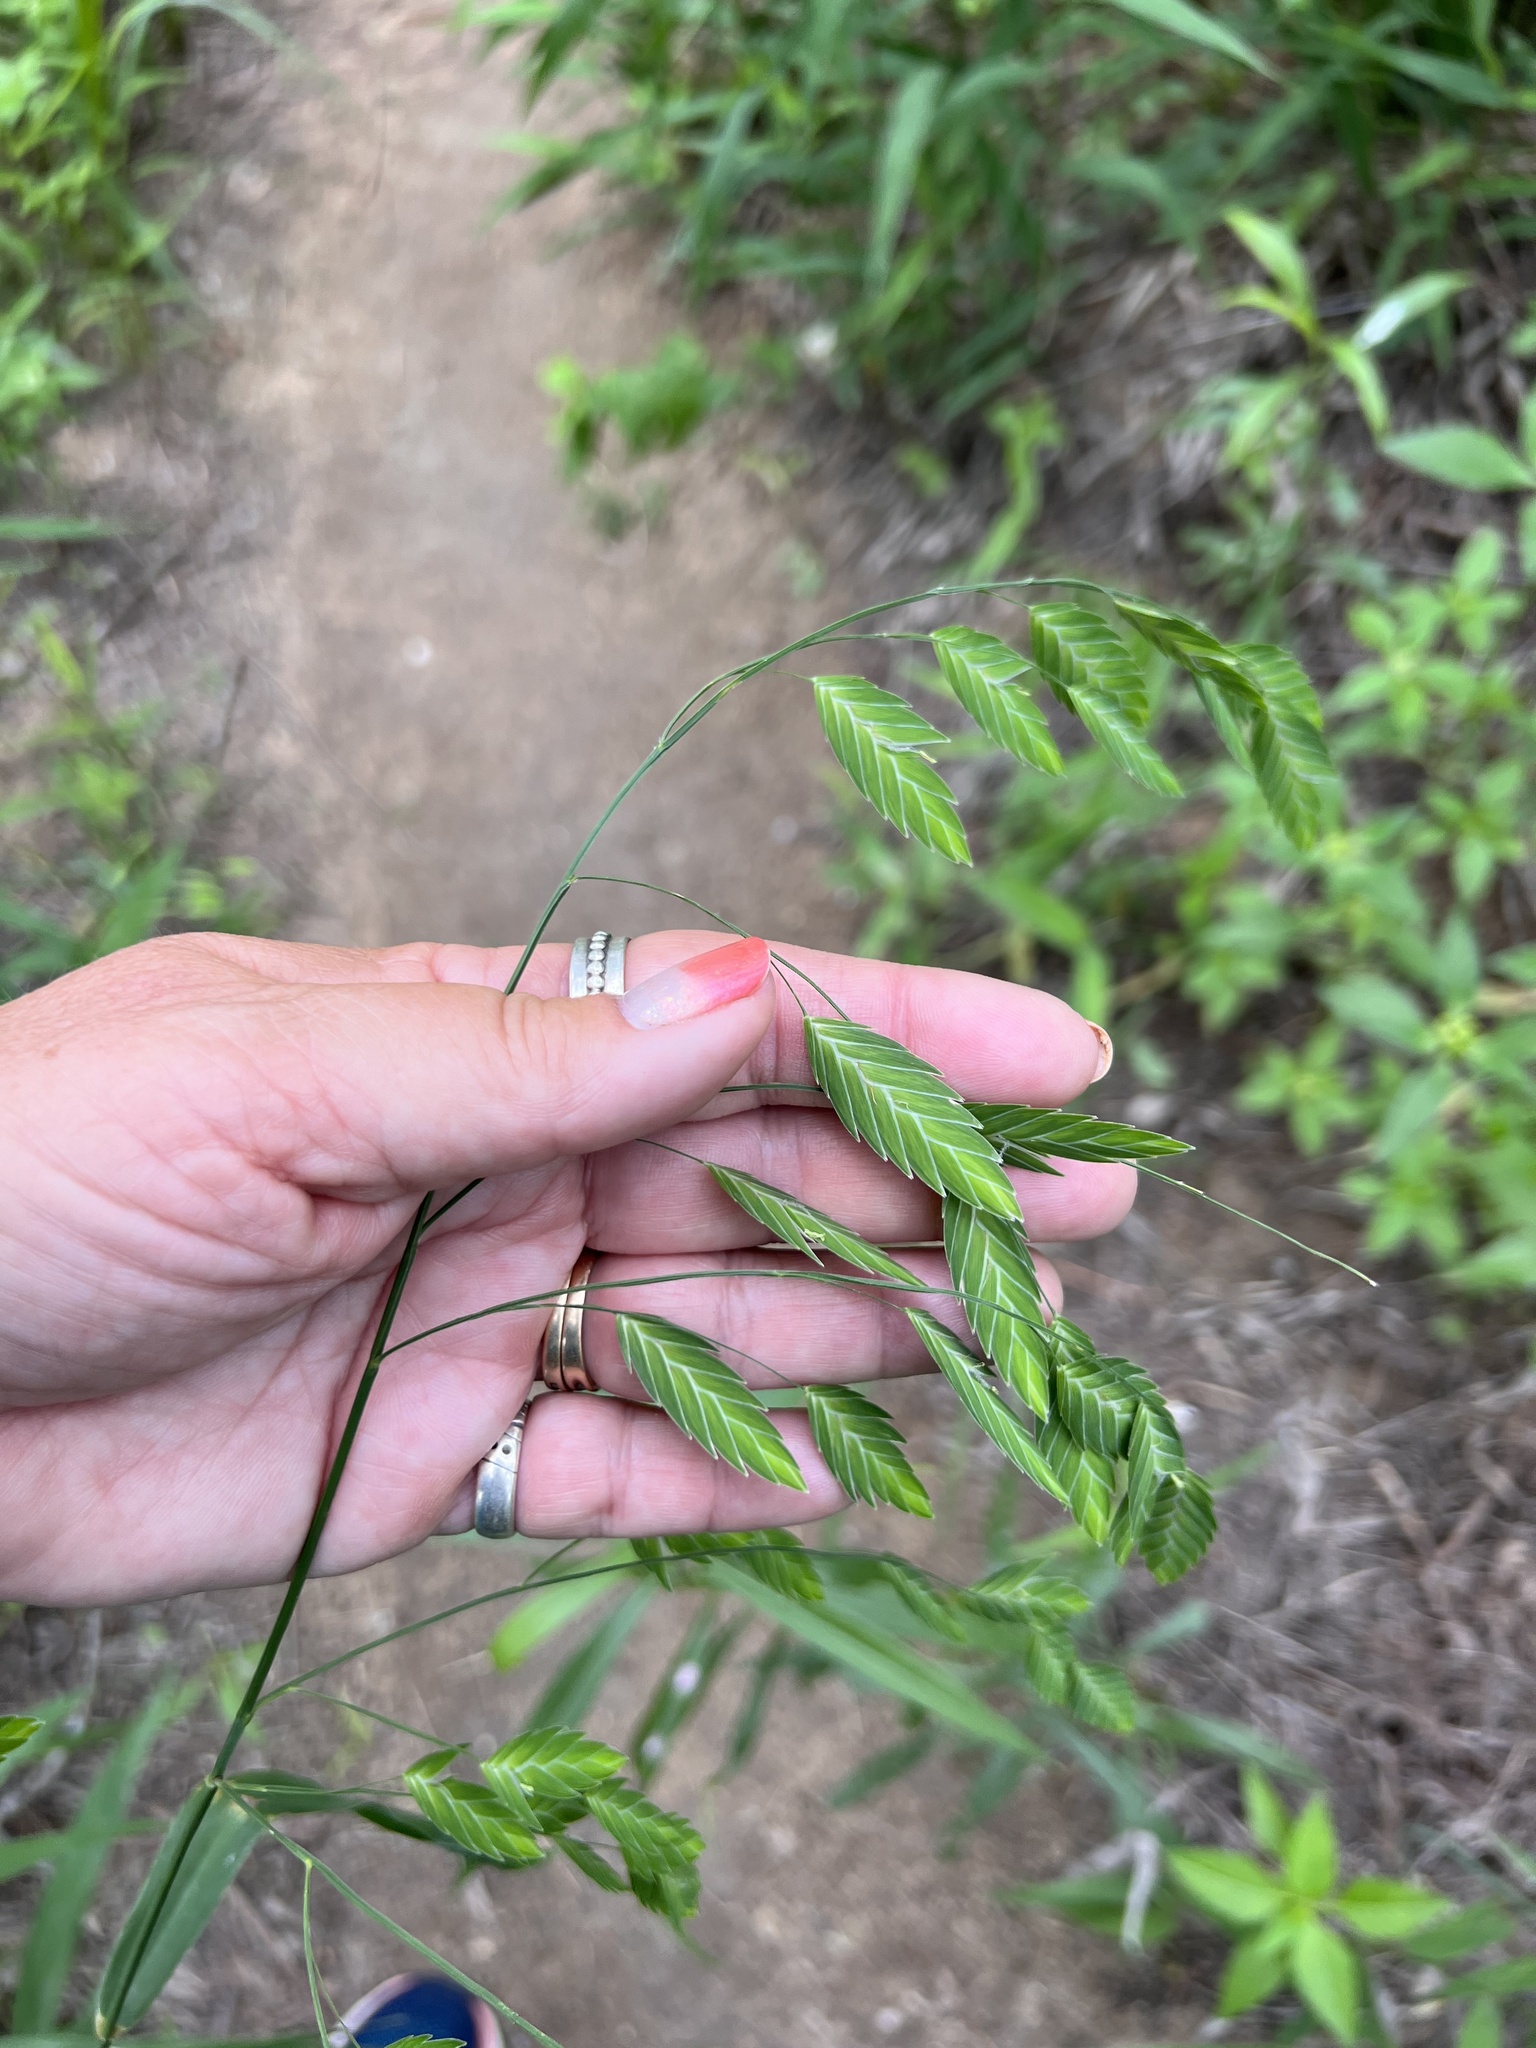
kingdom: Plantae
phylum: Tracheophyta
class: Liliopsida
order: Poales
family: Poaceae
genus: Chasmanthium
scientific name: Chasmanthium latifolium
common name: Broad-leaved chasmanthium
